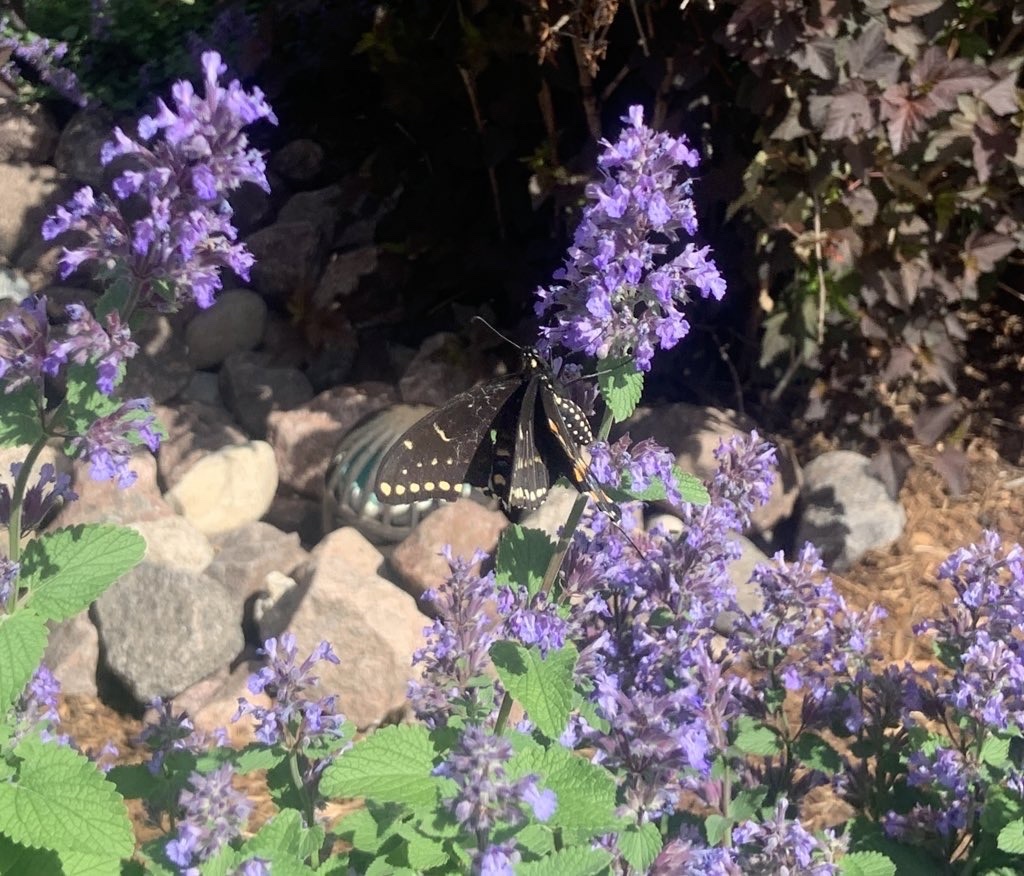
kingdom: Animalia
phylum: Arthropoda
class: Insecta
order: Lepidoptera
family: Papilionidae
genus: Papilio
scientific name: Papilio polyxenes
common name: Black swallowtail
